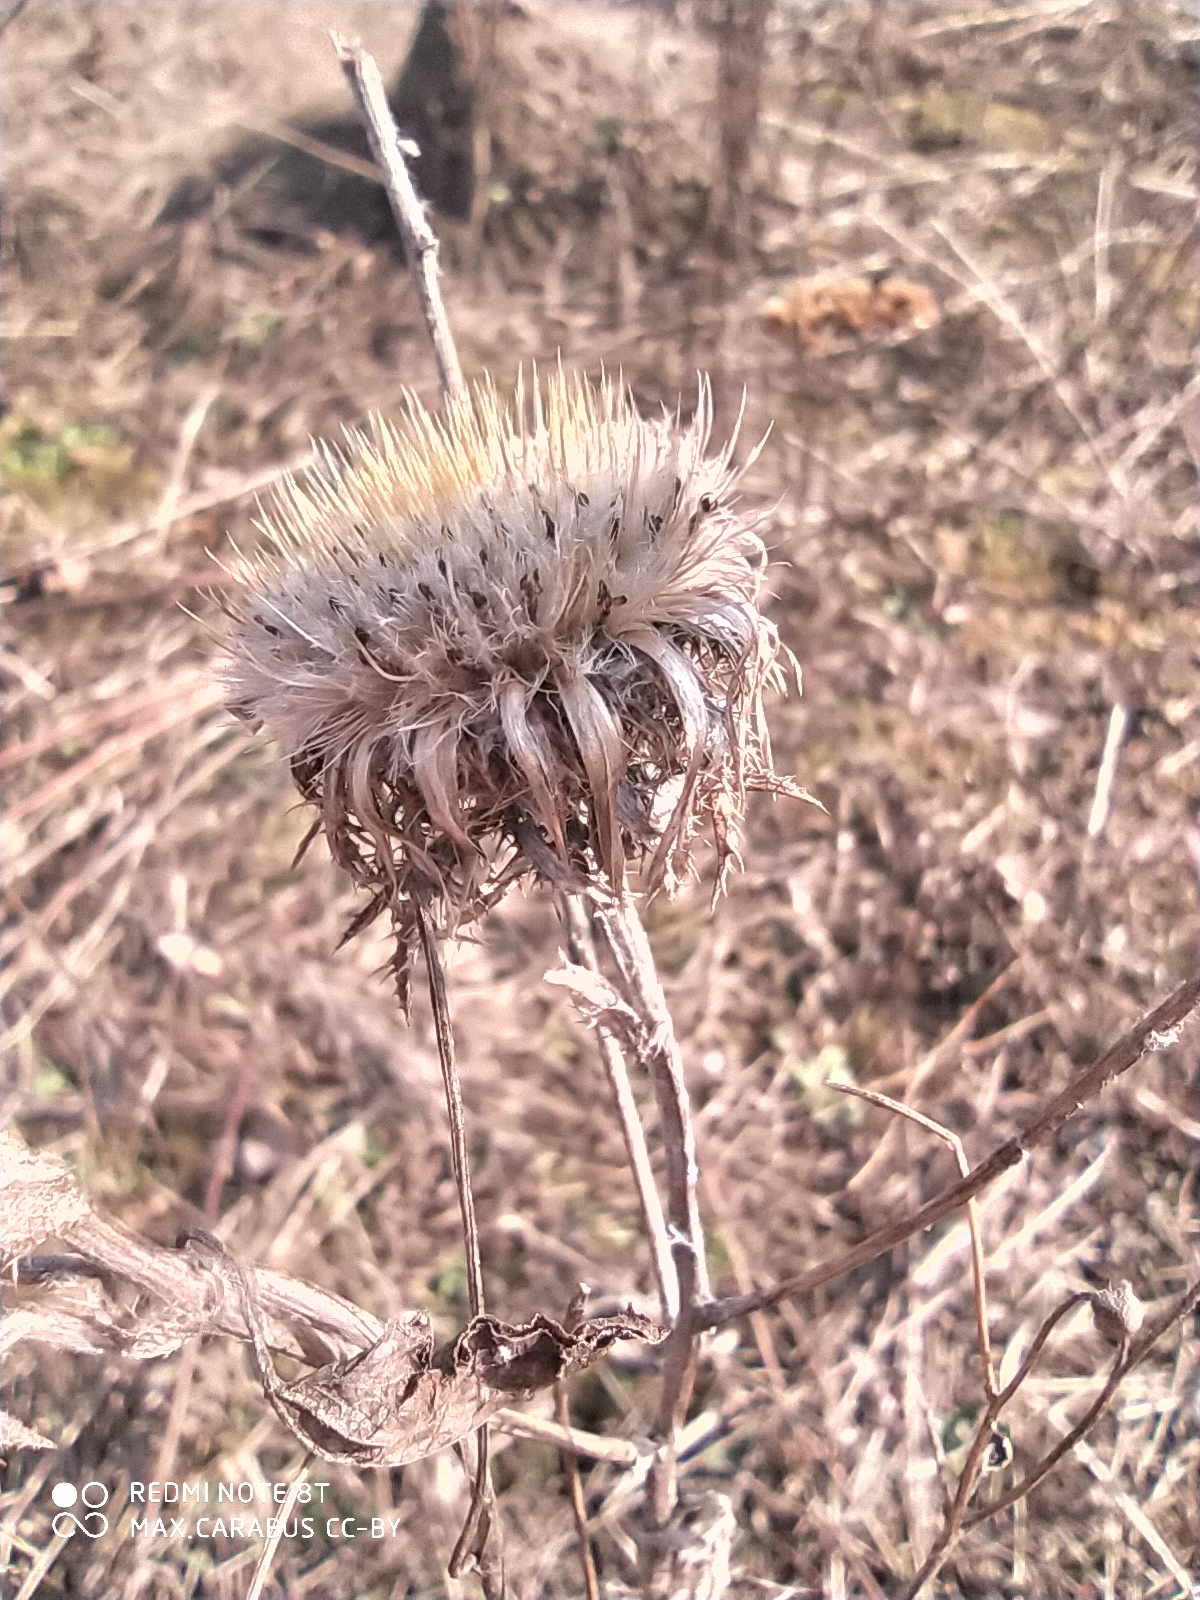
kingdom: Plantae
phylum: Tracheophyta
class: Magnoliopsida
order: Asterales
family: Asteraceae
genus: Carlina
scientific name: Carlina biebersteinii
